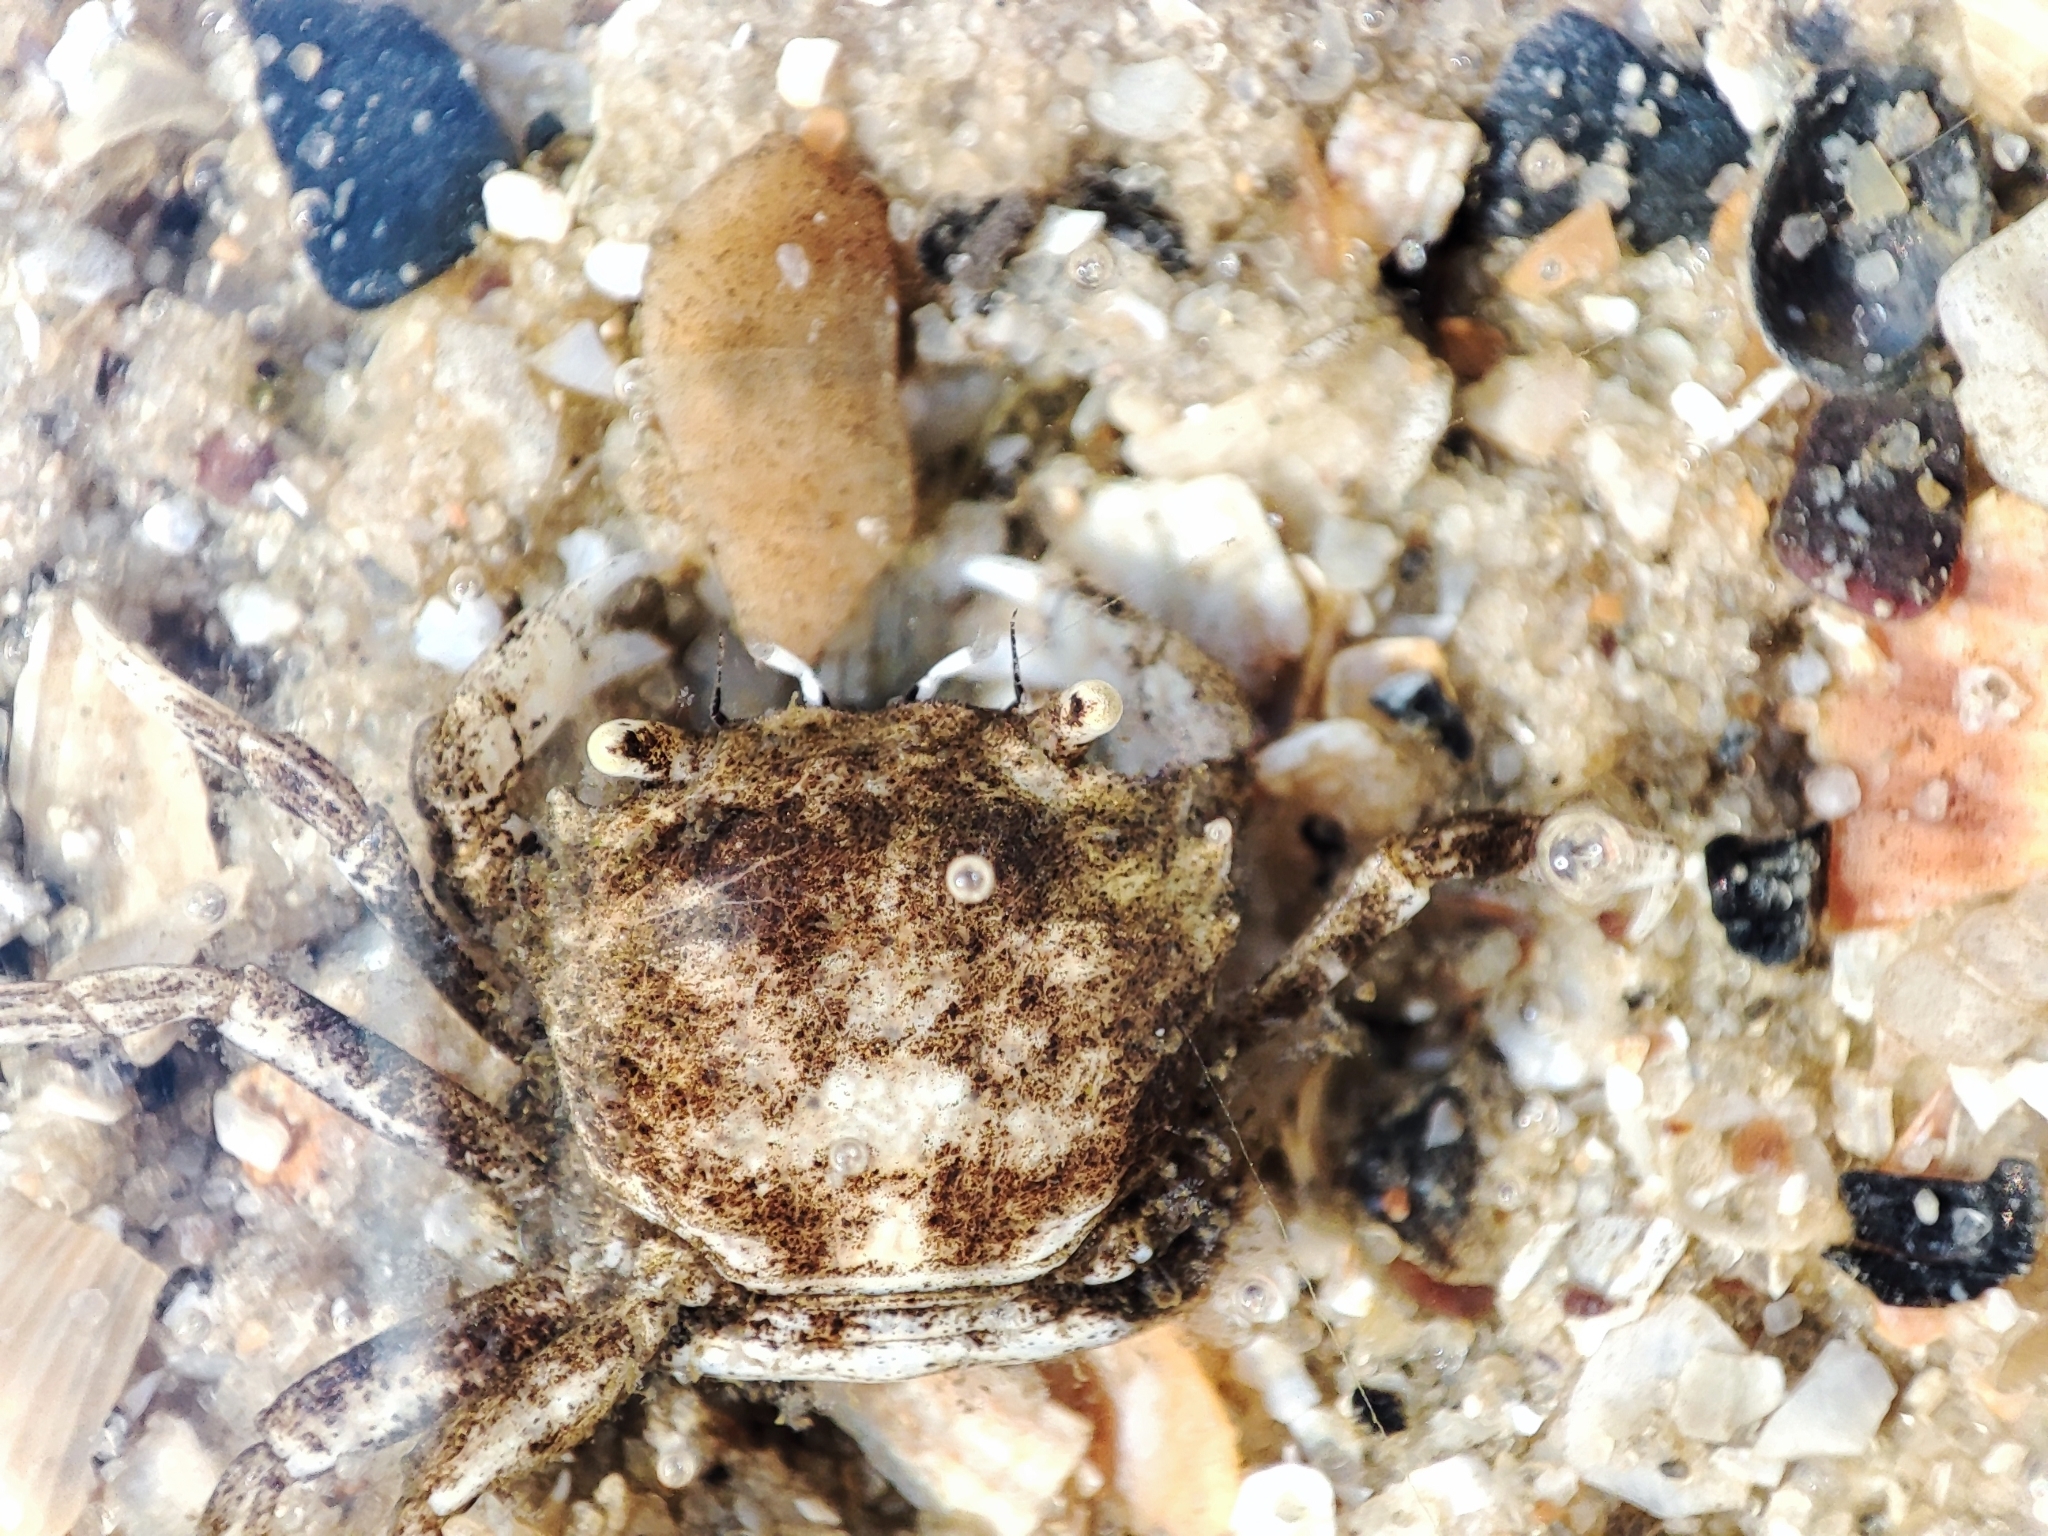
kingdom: Animalia
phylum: Arthropoda
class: Malacostraca
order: Decapoda
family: Varunidae
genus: Brachynotus
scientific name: Brachynotus sexdentatus
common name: Mediterranean crab
